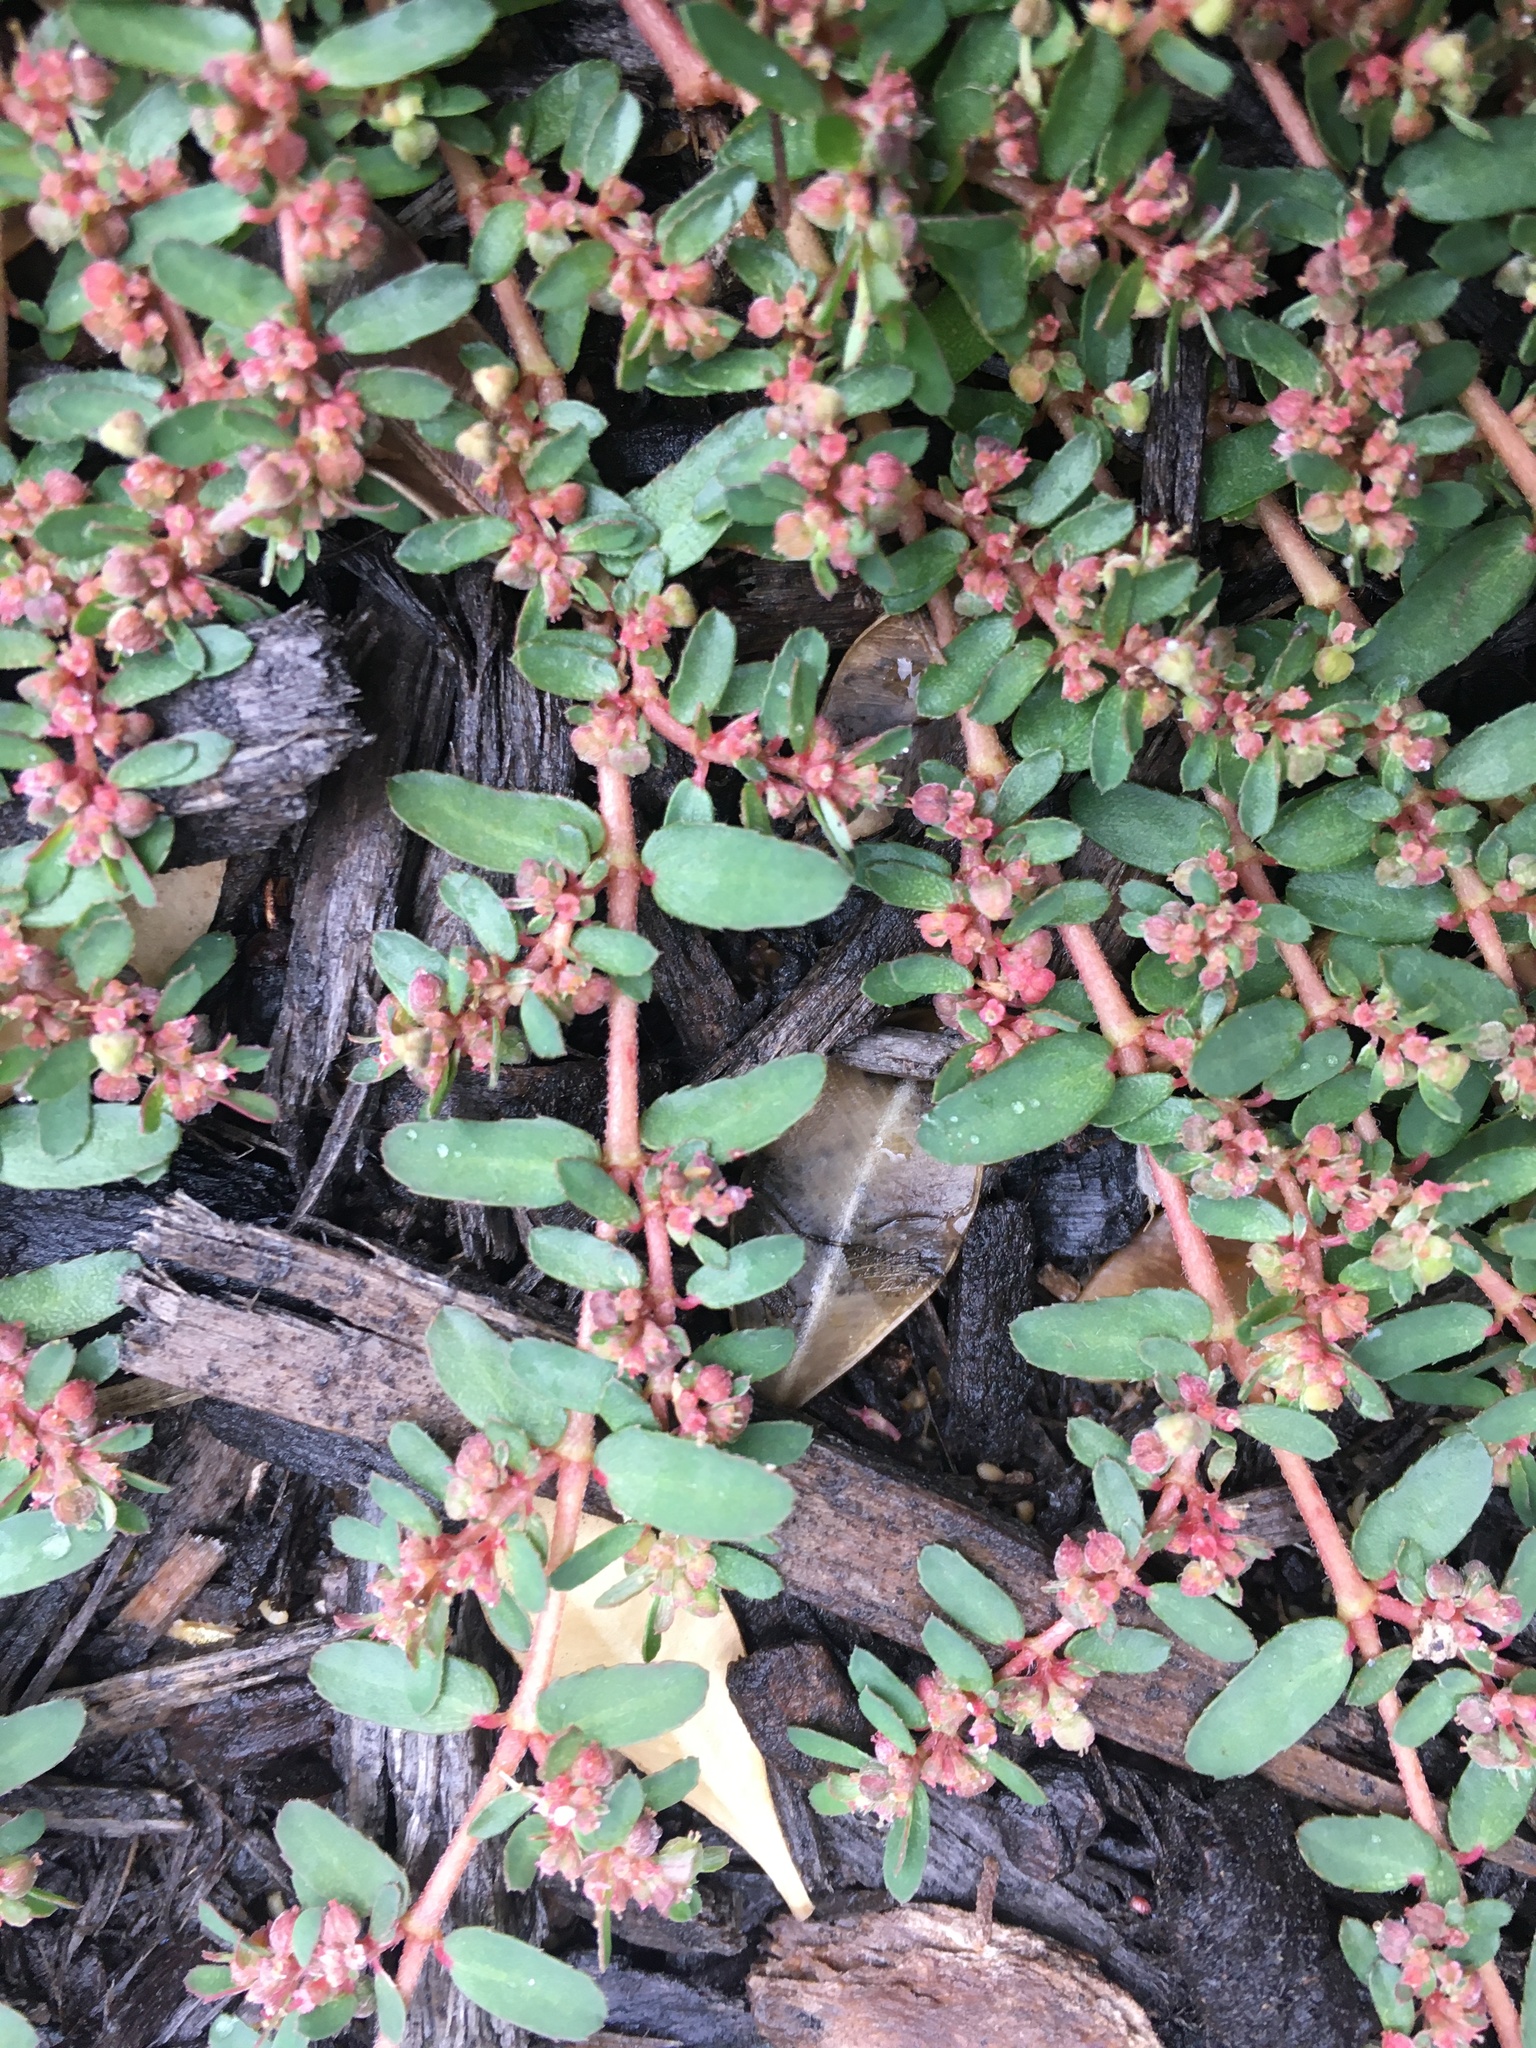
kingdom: Plantae
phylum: Tracheophyta
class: Magnoliopsida
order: Malpighiales
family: Euphorbiaceae
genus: Euphorbia
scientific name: Euphorbia maculata
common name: Spotted spurge
